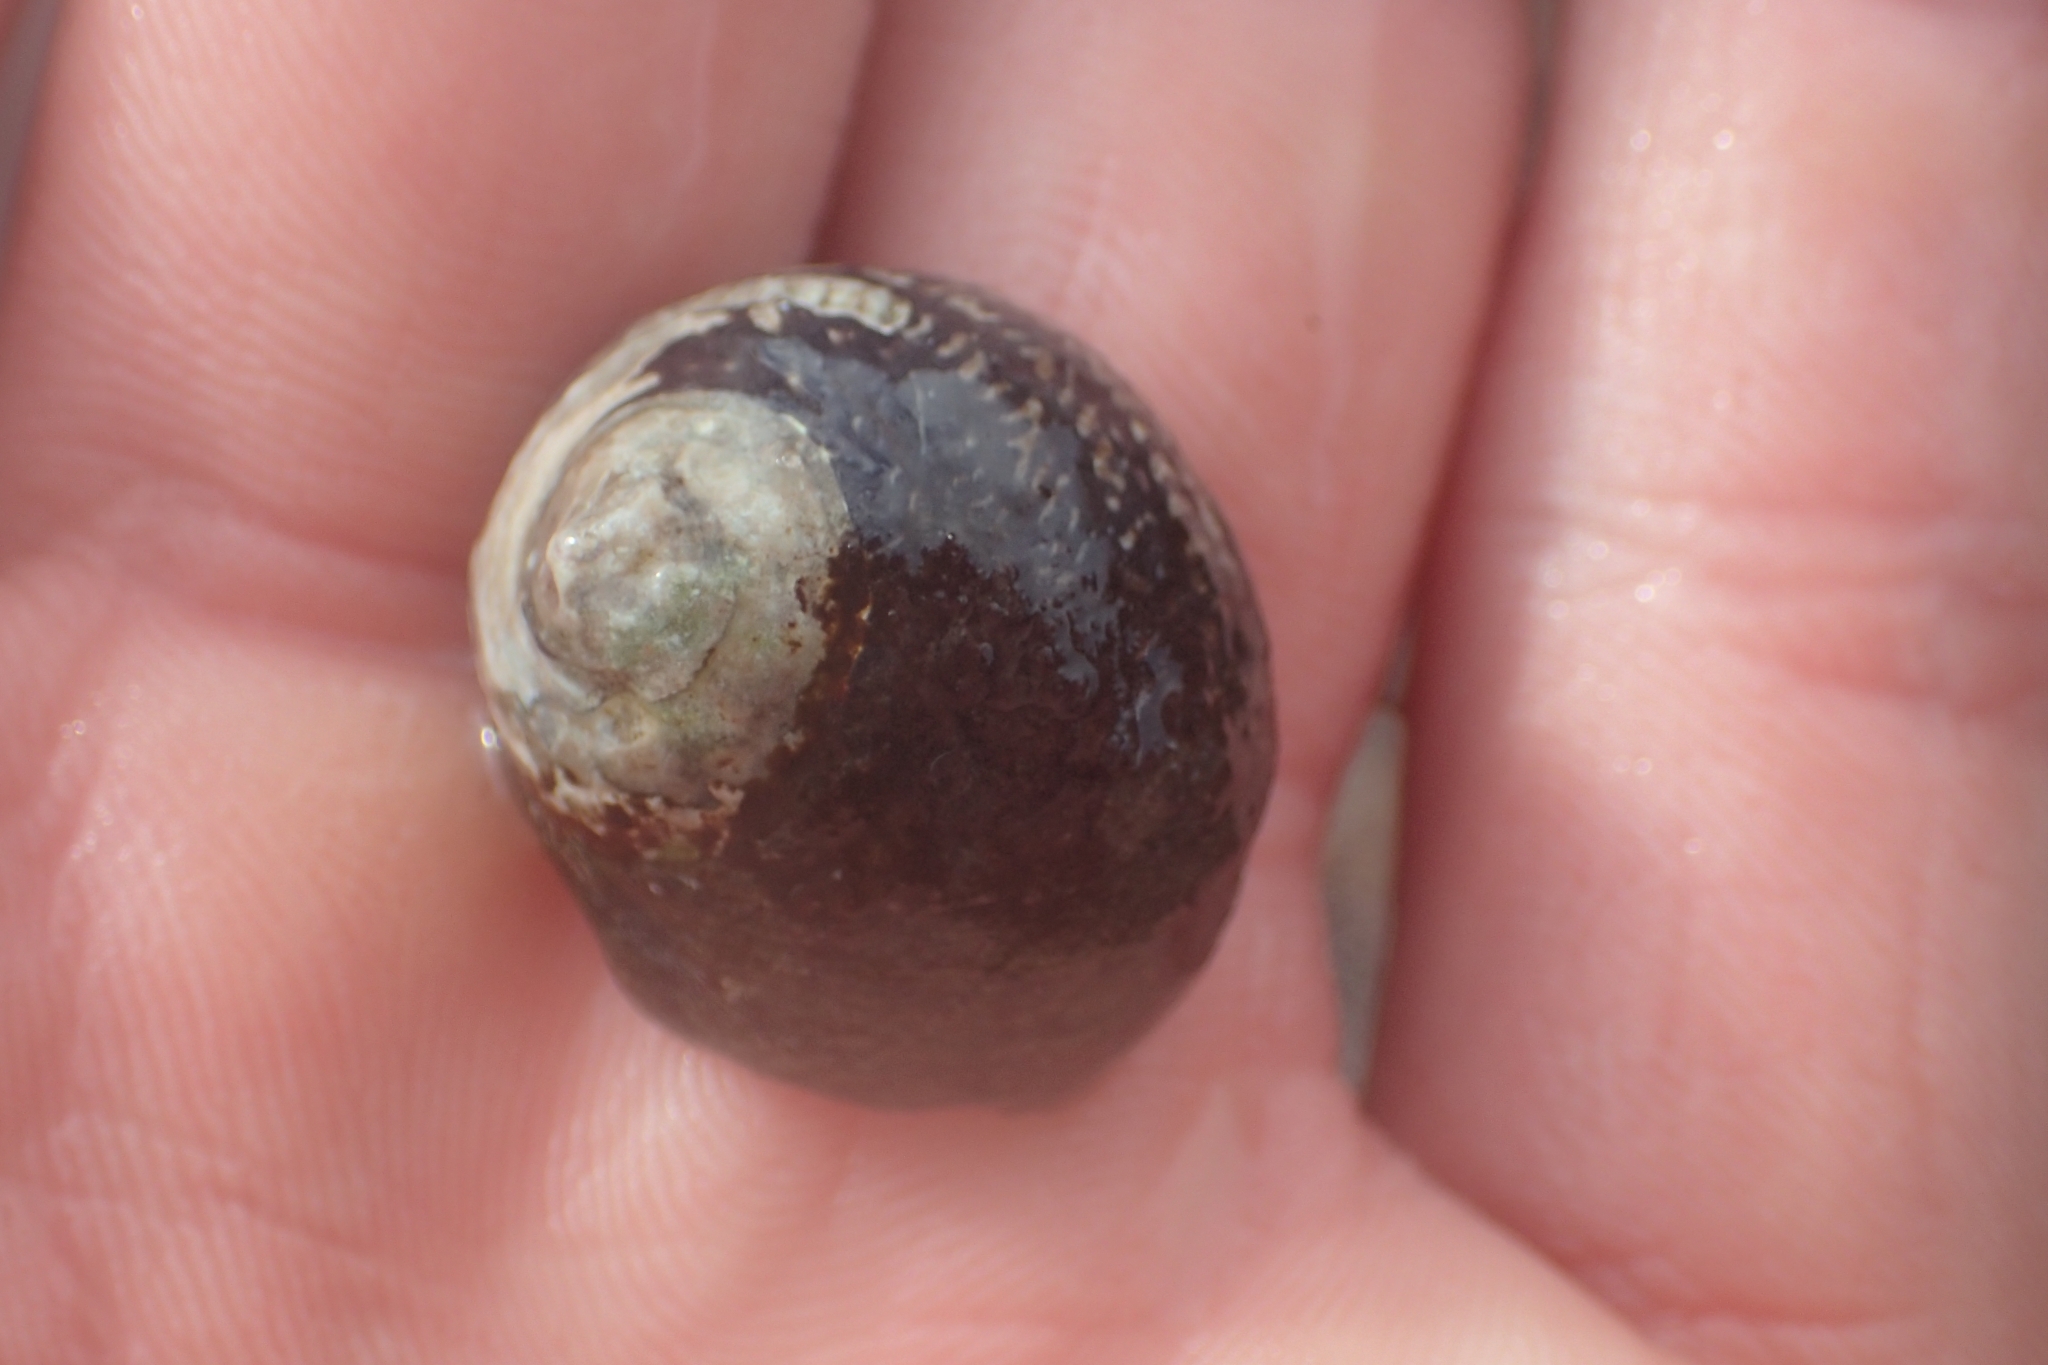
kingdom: Animalia
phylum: Mollusca
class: Gastropoda
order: Trochida
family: Trochidae
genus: Diloma
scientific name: Diloma aethiops
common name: Scorched monodont
